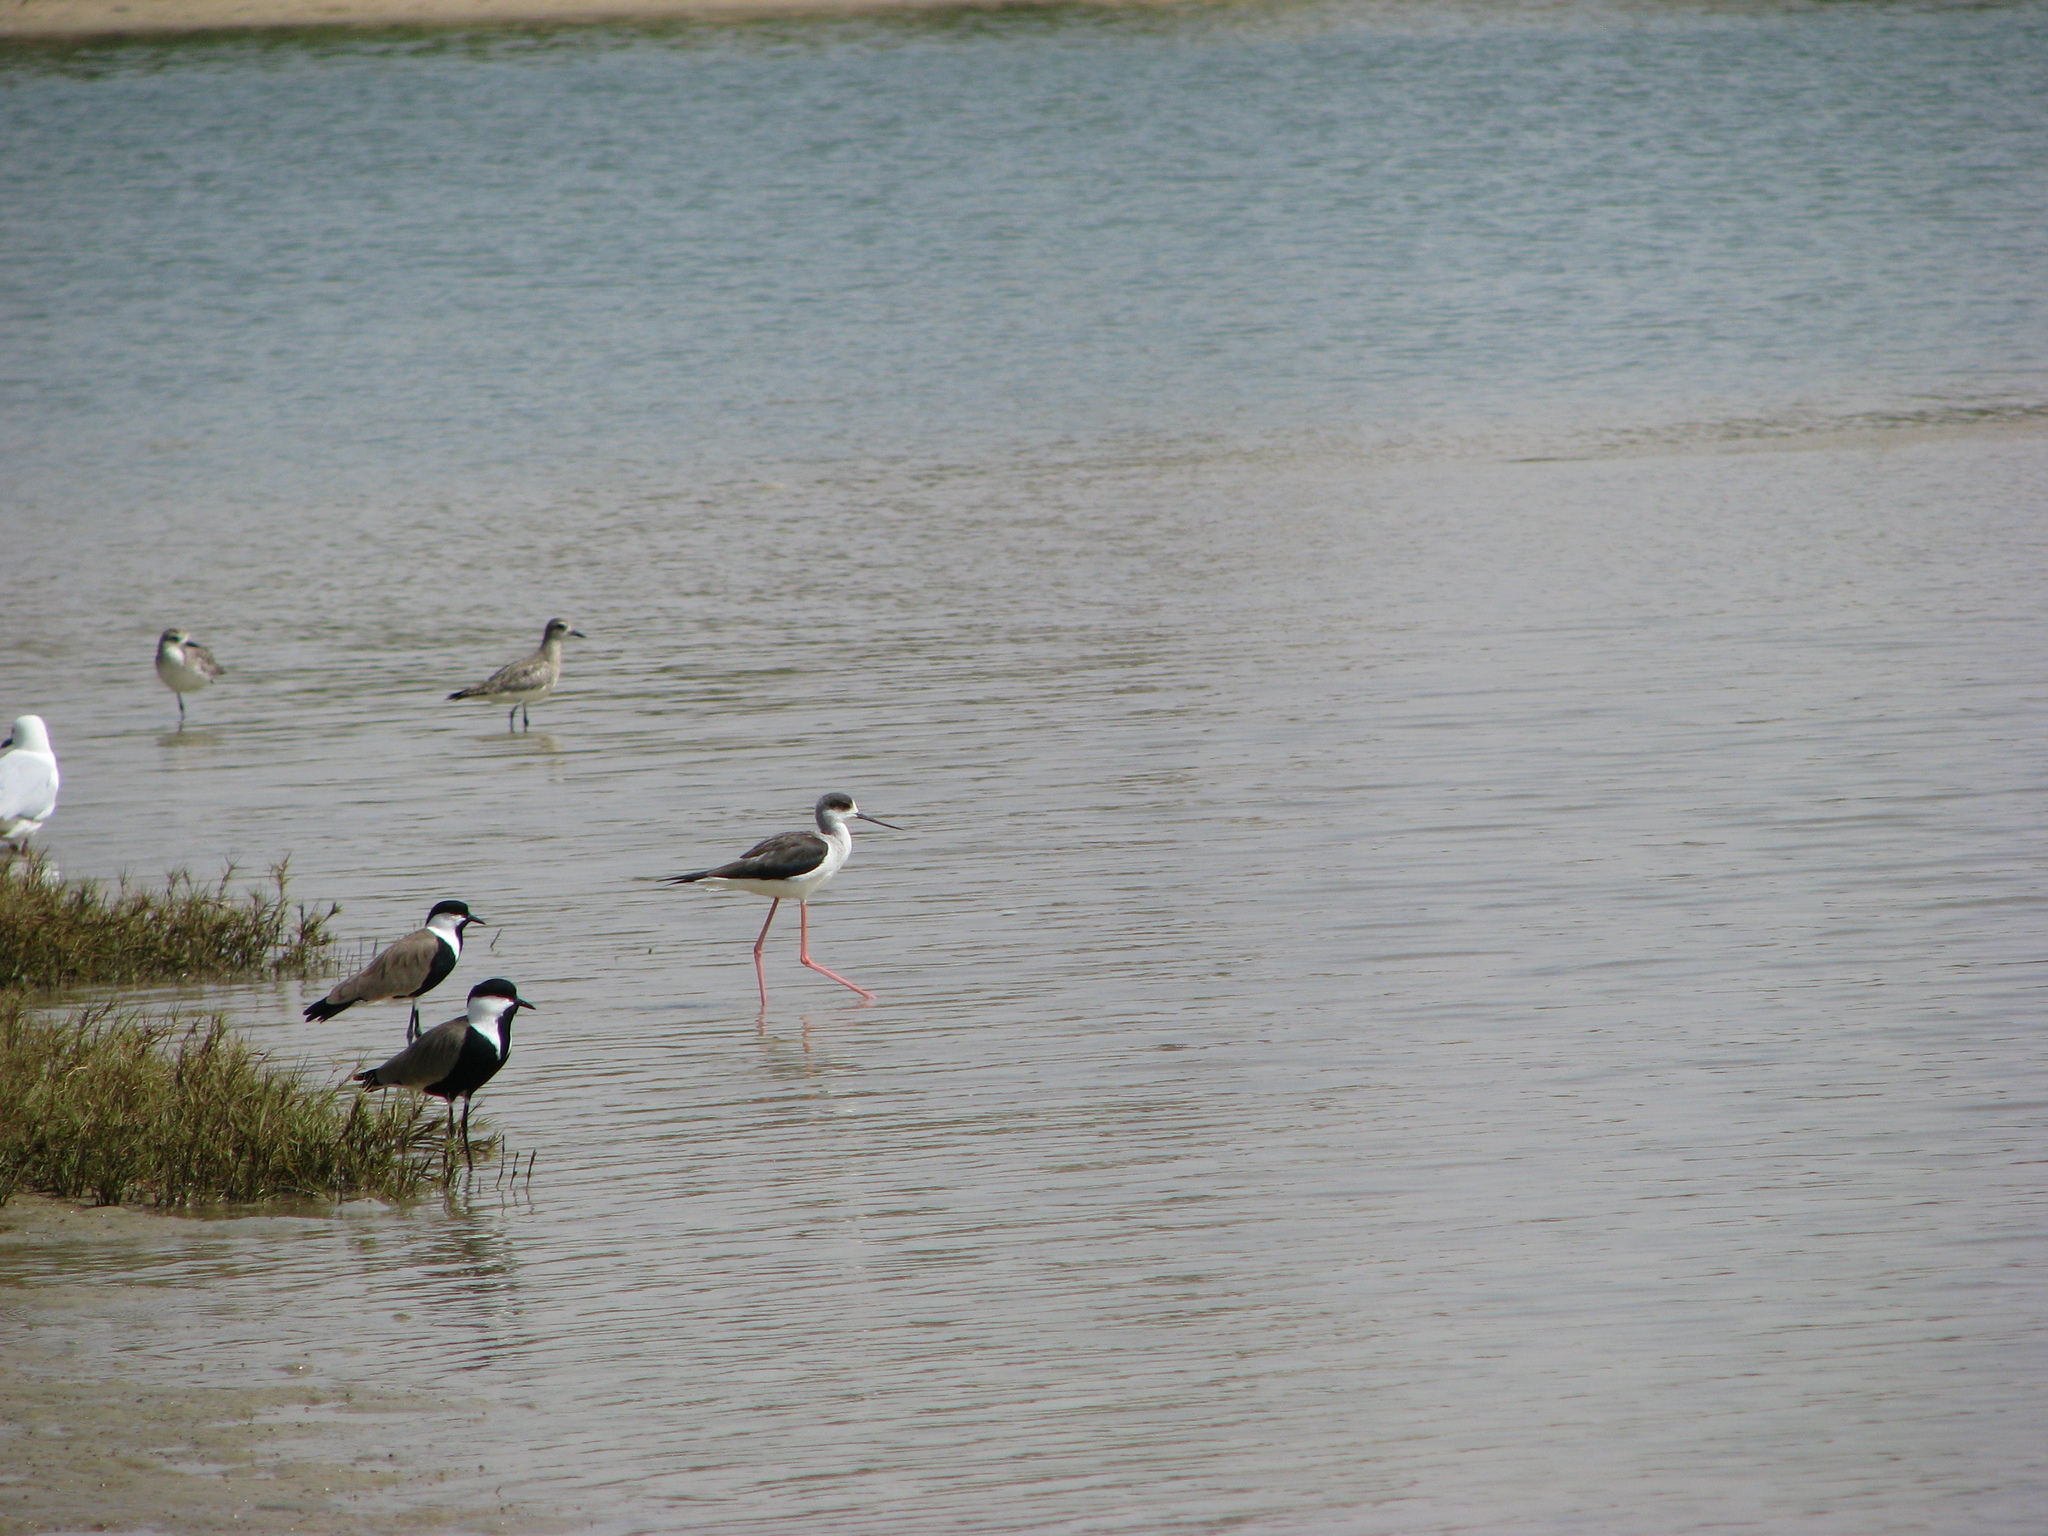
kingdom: Animalia
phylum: Chordata
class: Aves
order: Charadriiformes
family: Recurvirostridae
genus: Himantopus
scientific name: Himantopus himantopus
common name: Black-winged stilt
